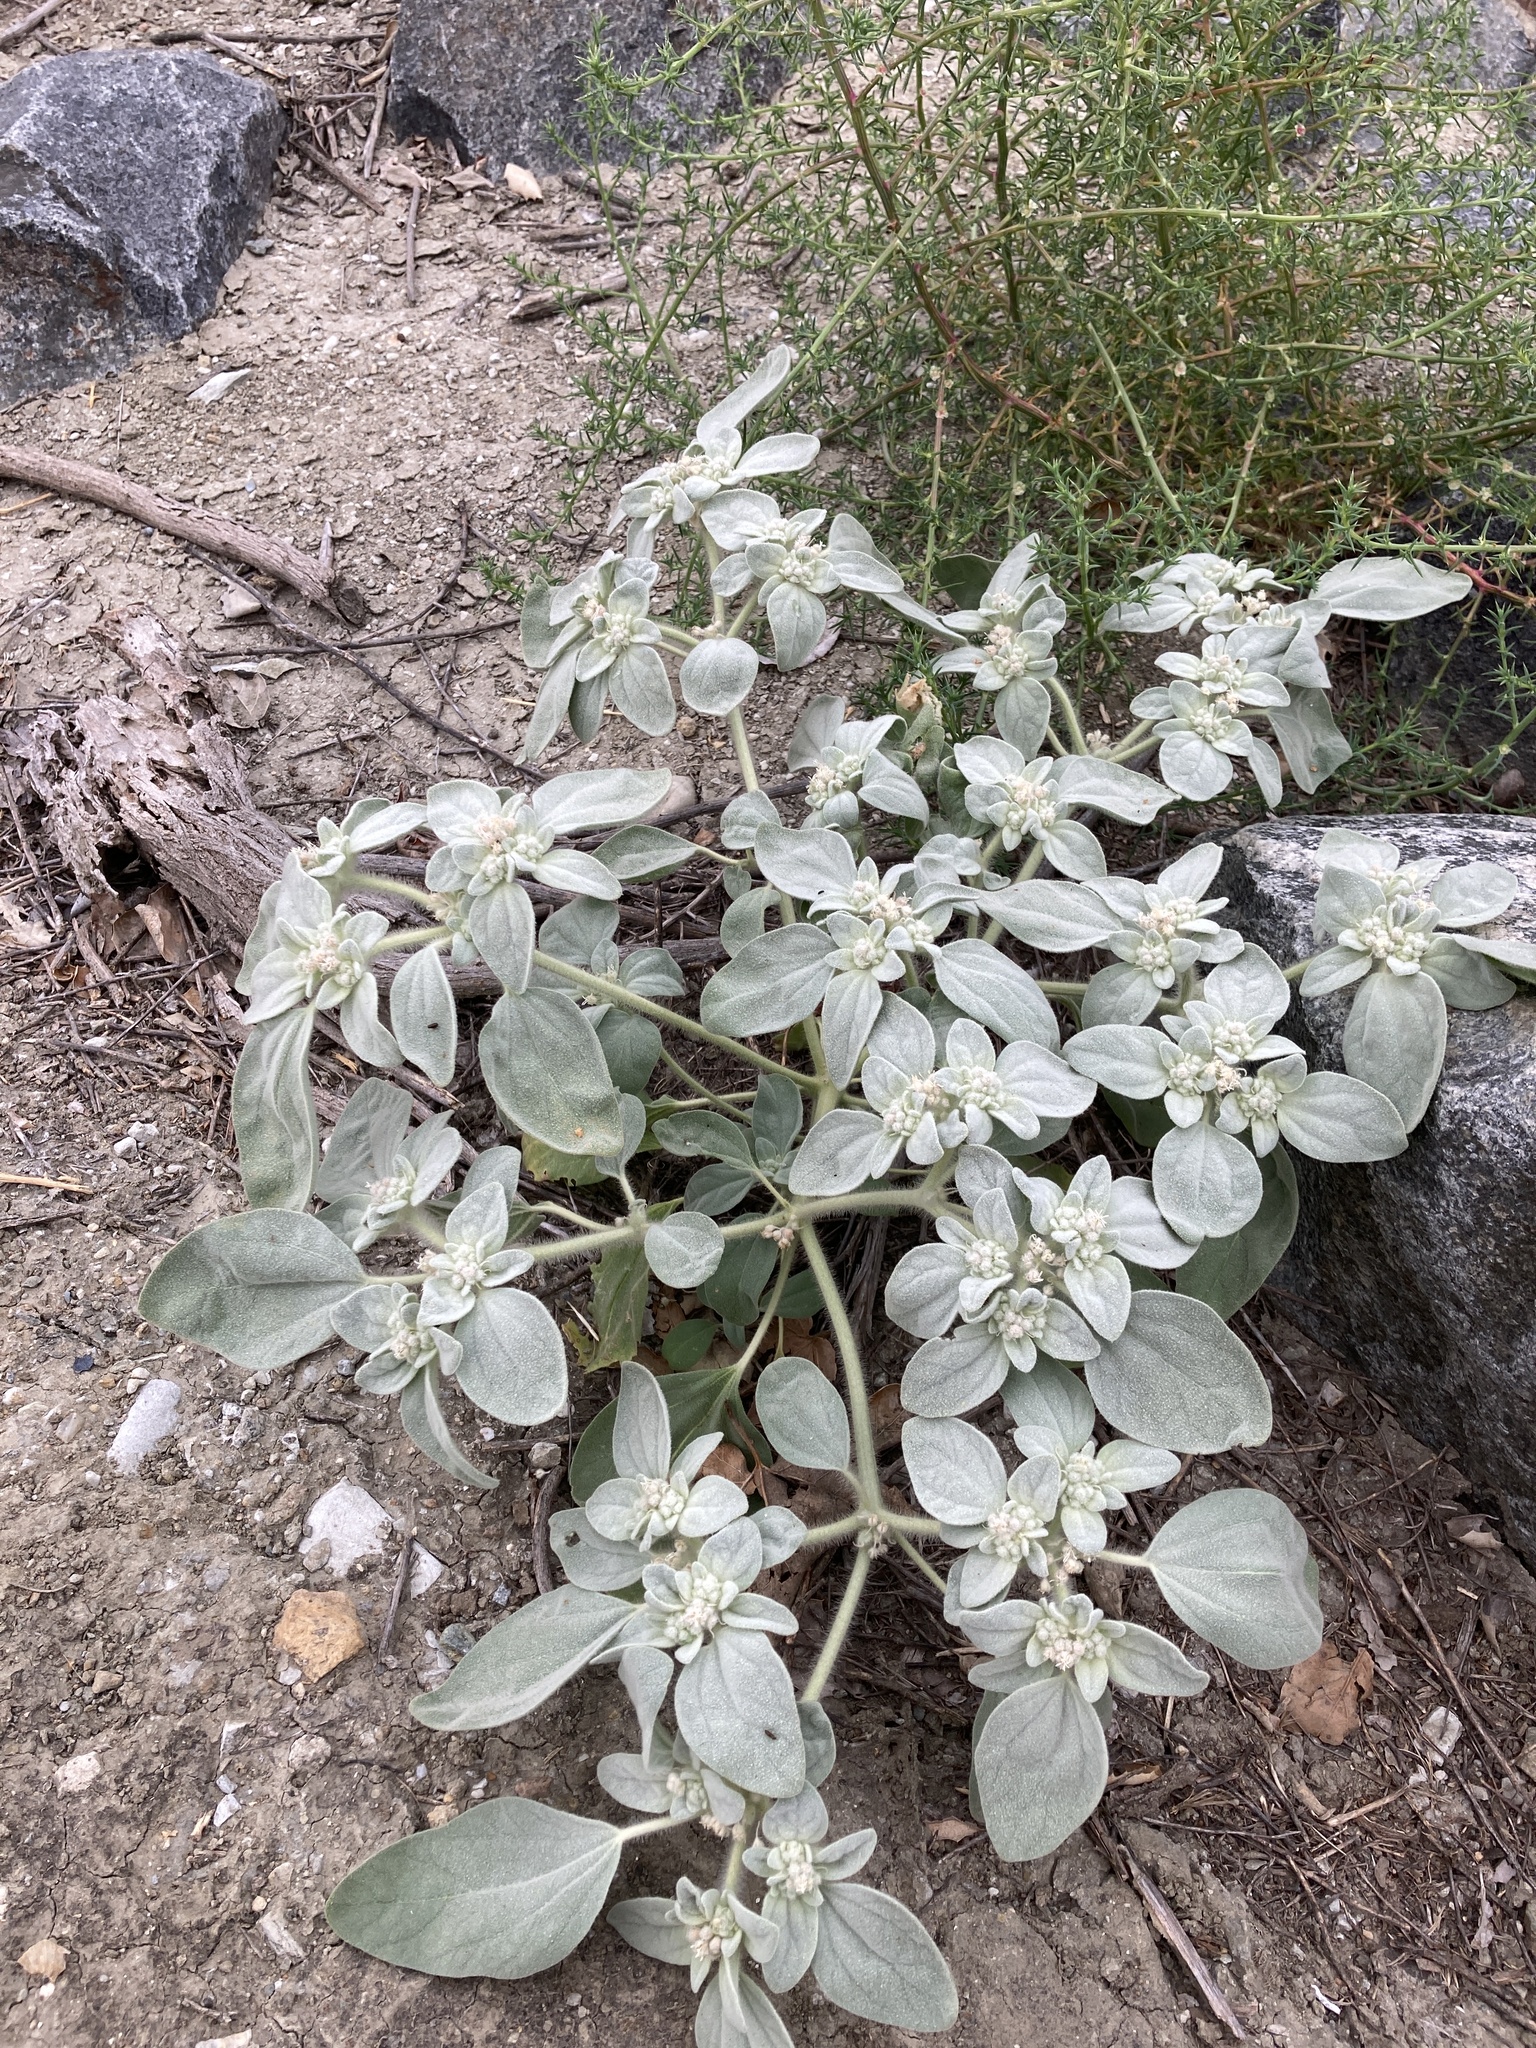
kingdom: Plantae
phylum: Tracheophyta
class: Magnoliopsida
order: Malpighiales
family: Euphorbiaceae
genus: Croton
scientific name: Croton setiger
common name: Dove weed
